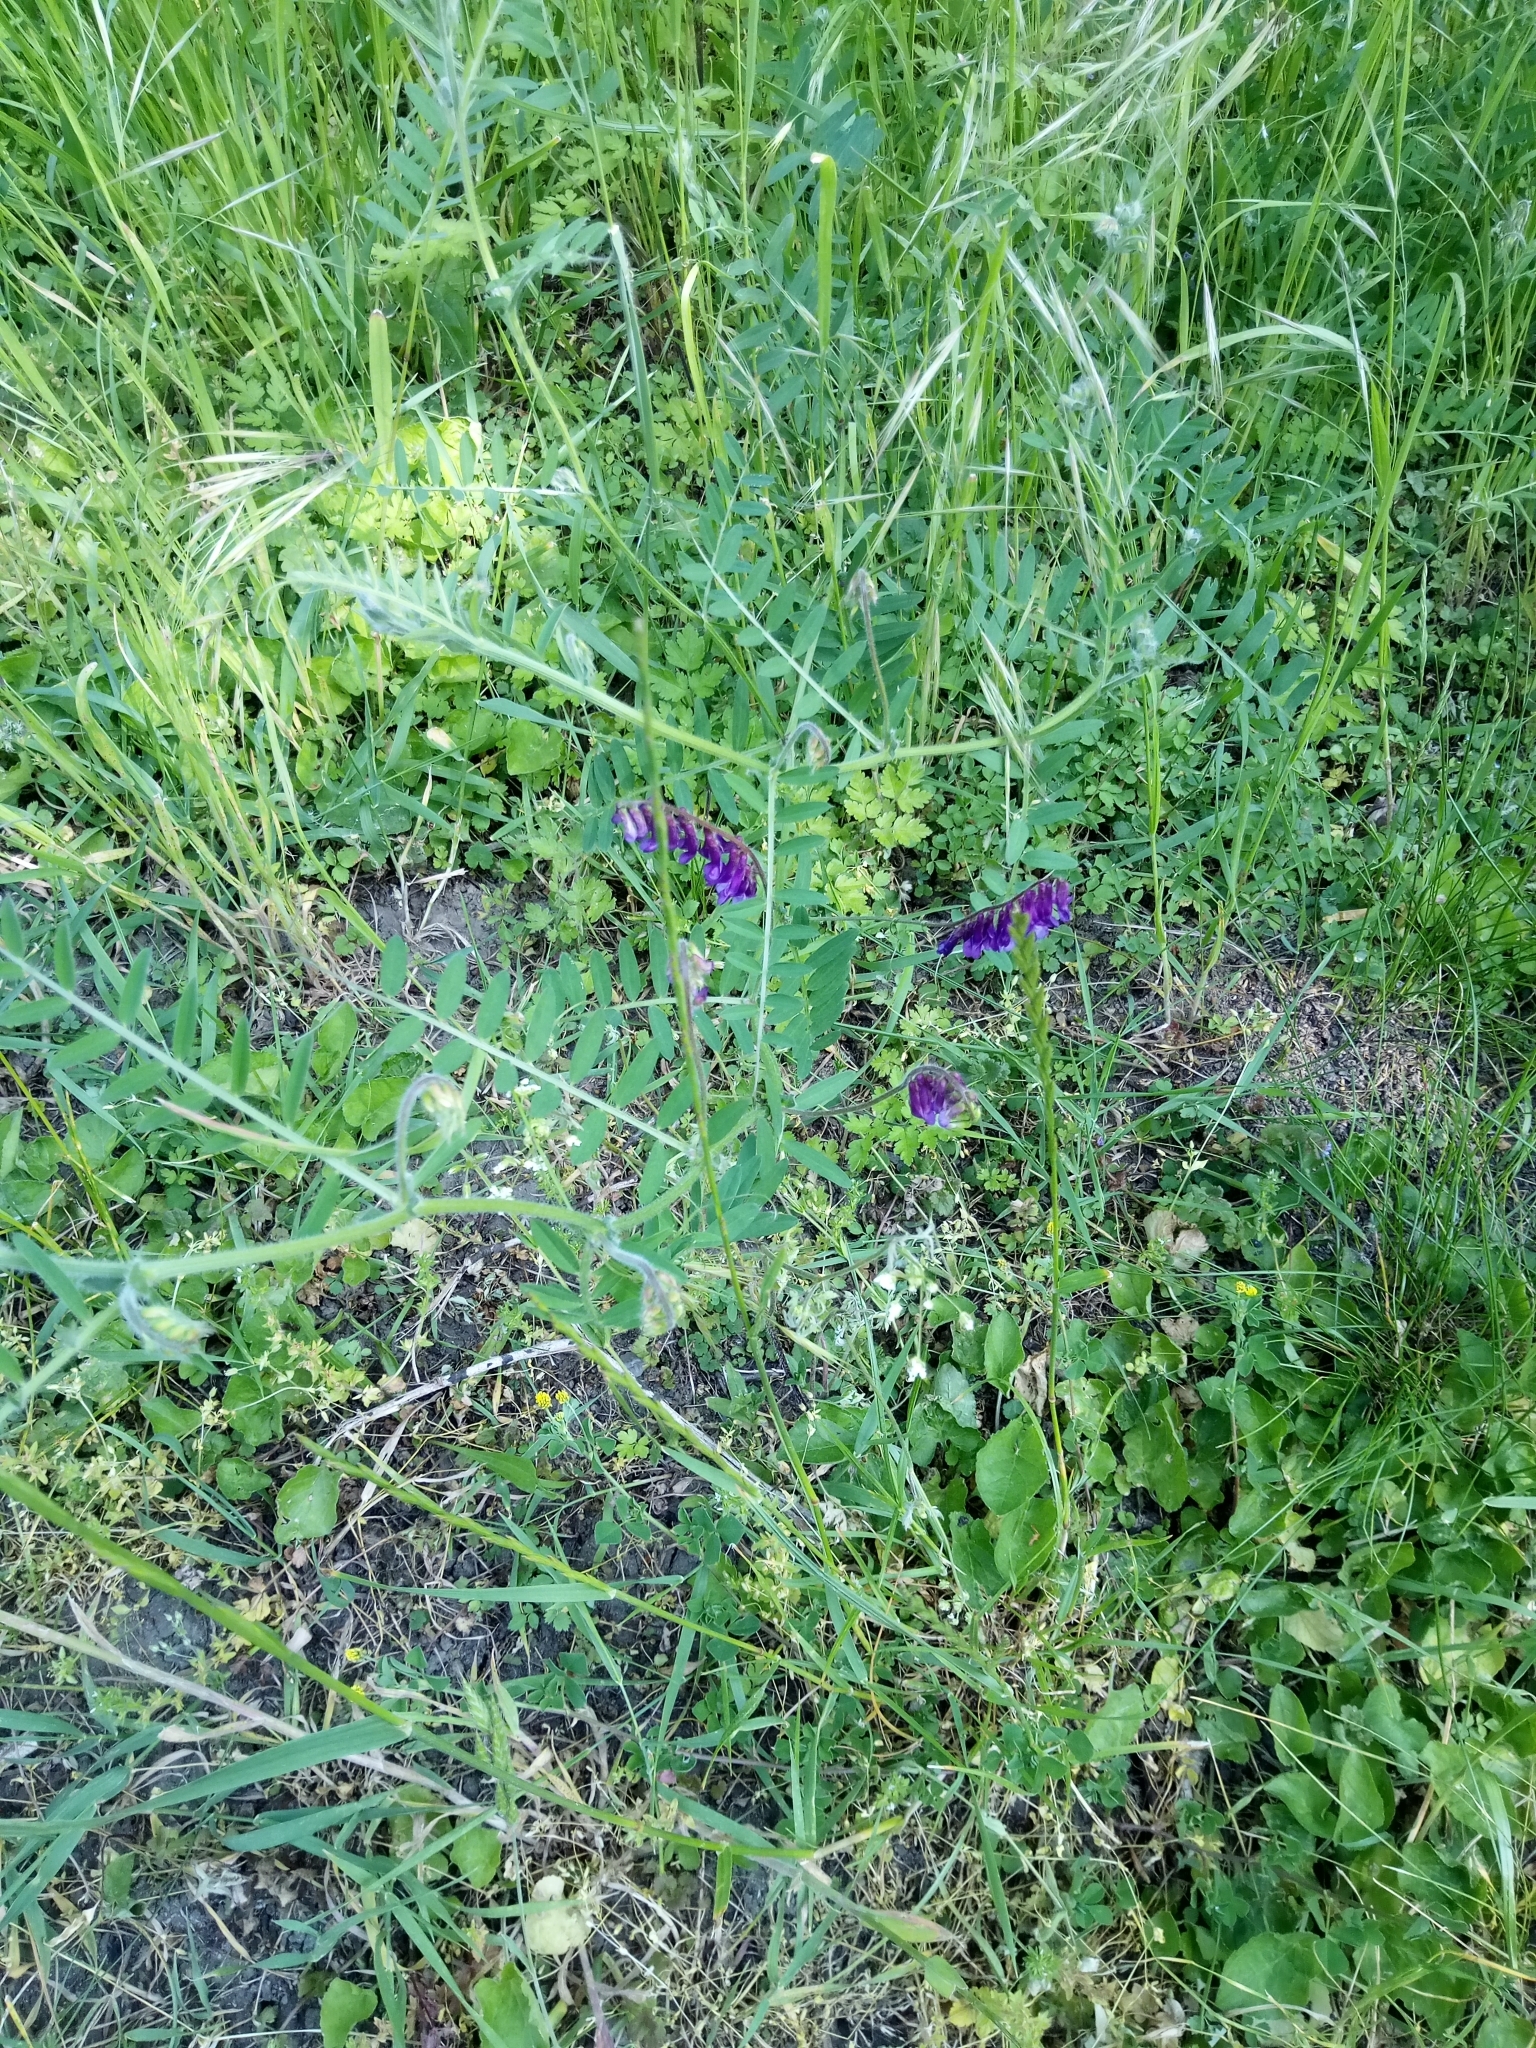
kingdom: Plantae
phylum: Tracheophyta
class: Magnoliopsida
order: Fabales
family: Fabaceae
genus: Vicia
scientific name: Vicia villosa
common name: Fodder vetch
